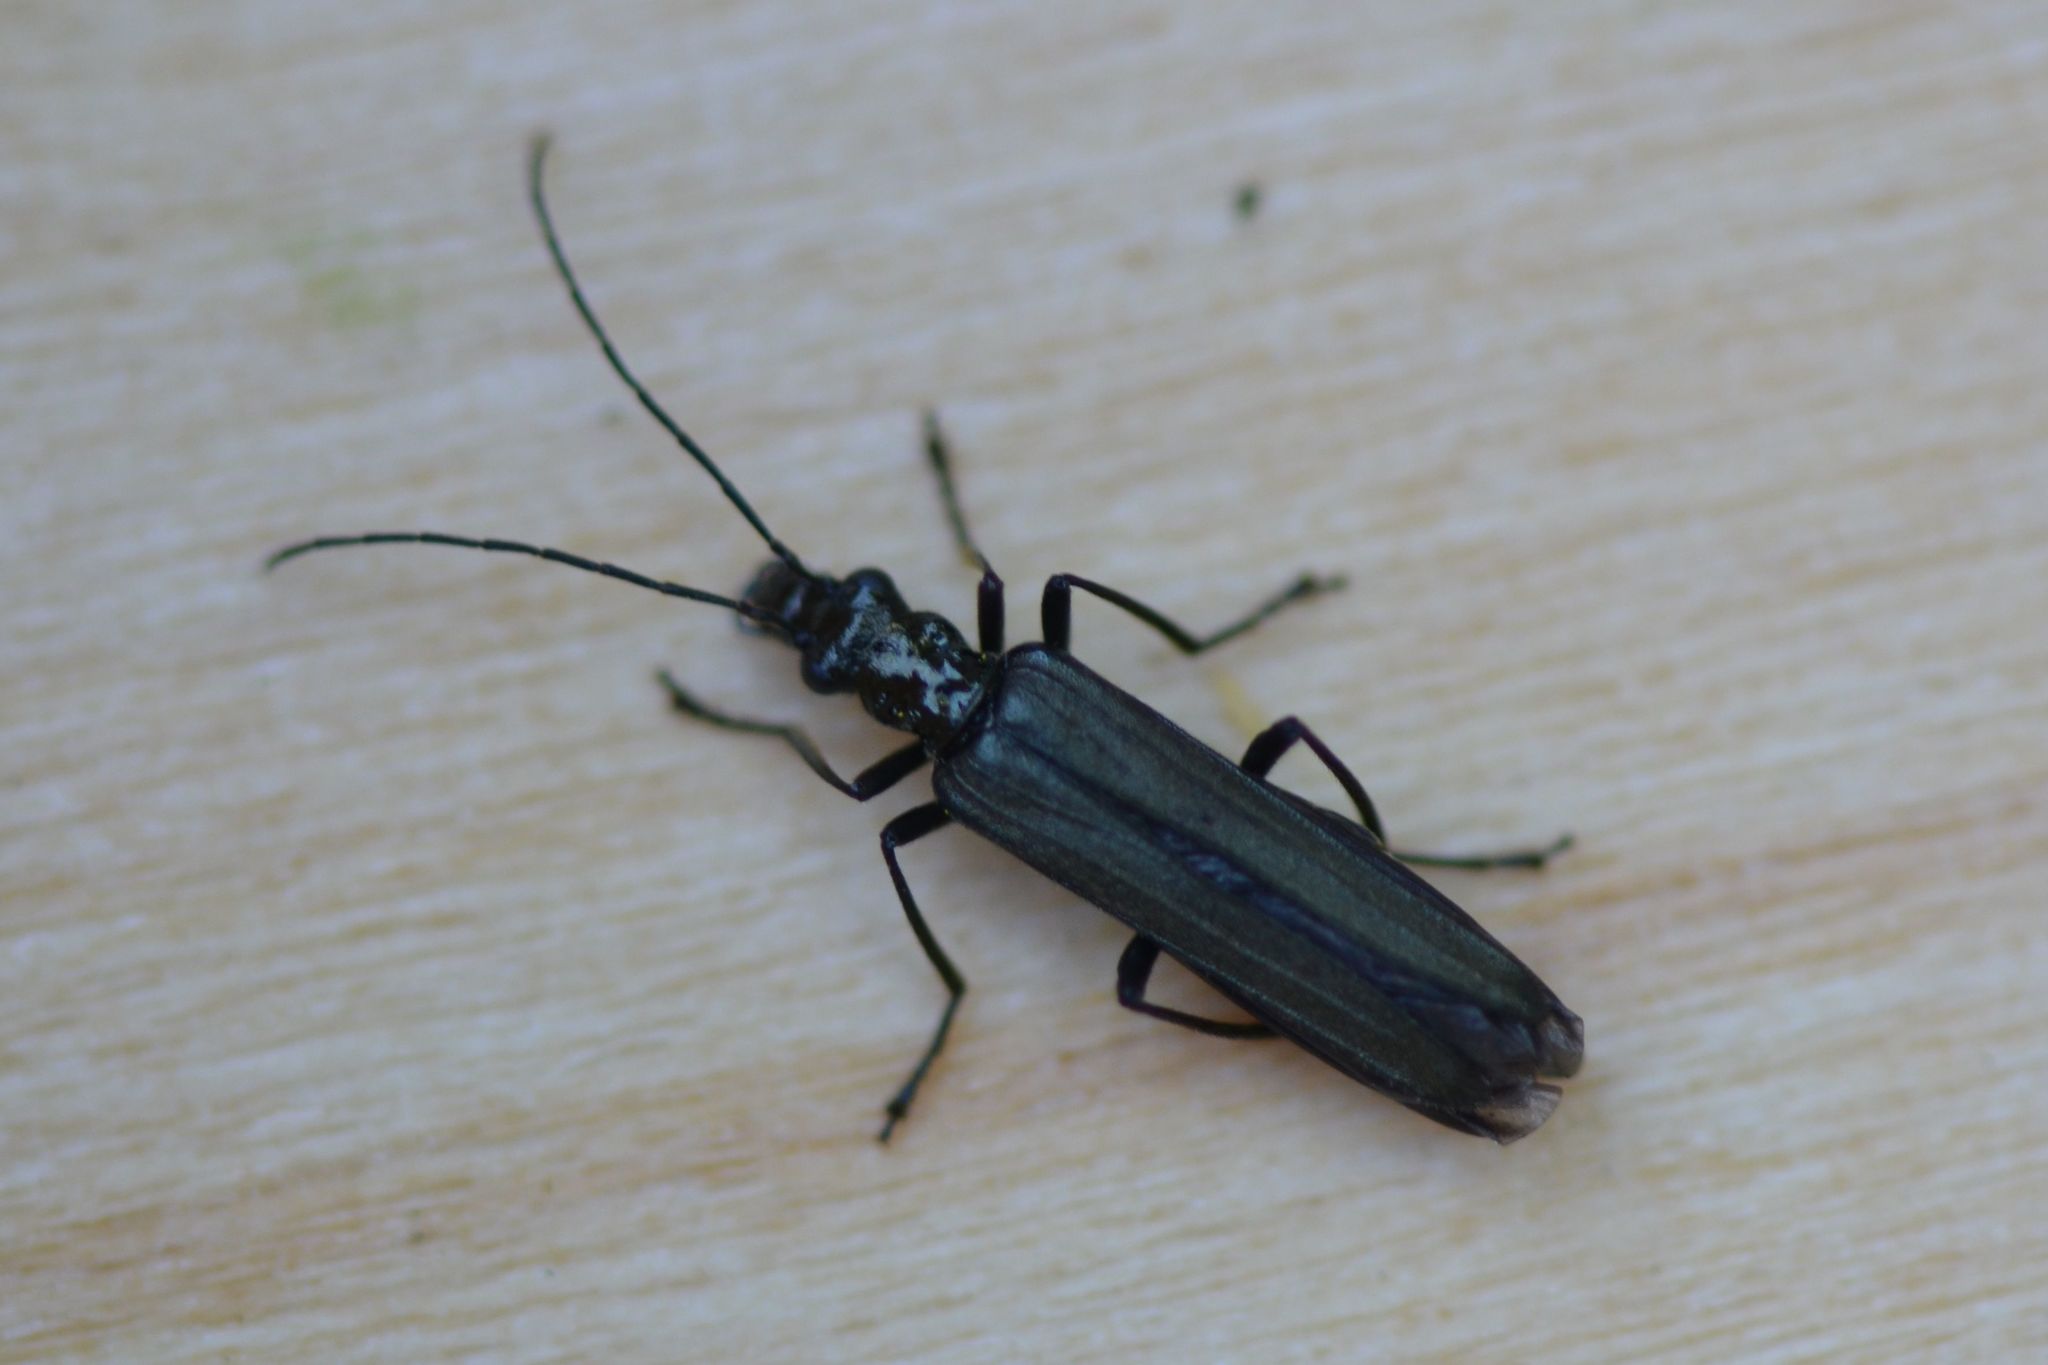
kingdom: Animalia
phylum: Arthropoda
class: Insecta
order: Coleoptera
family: Oedemeridae
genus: Oedemera
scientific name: Oedemera tristis
